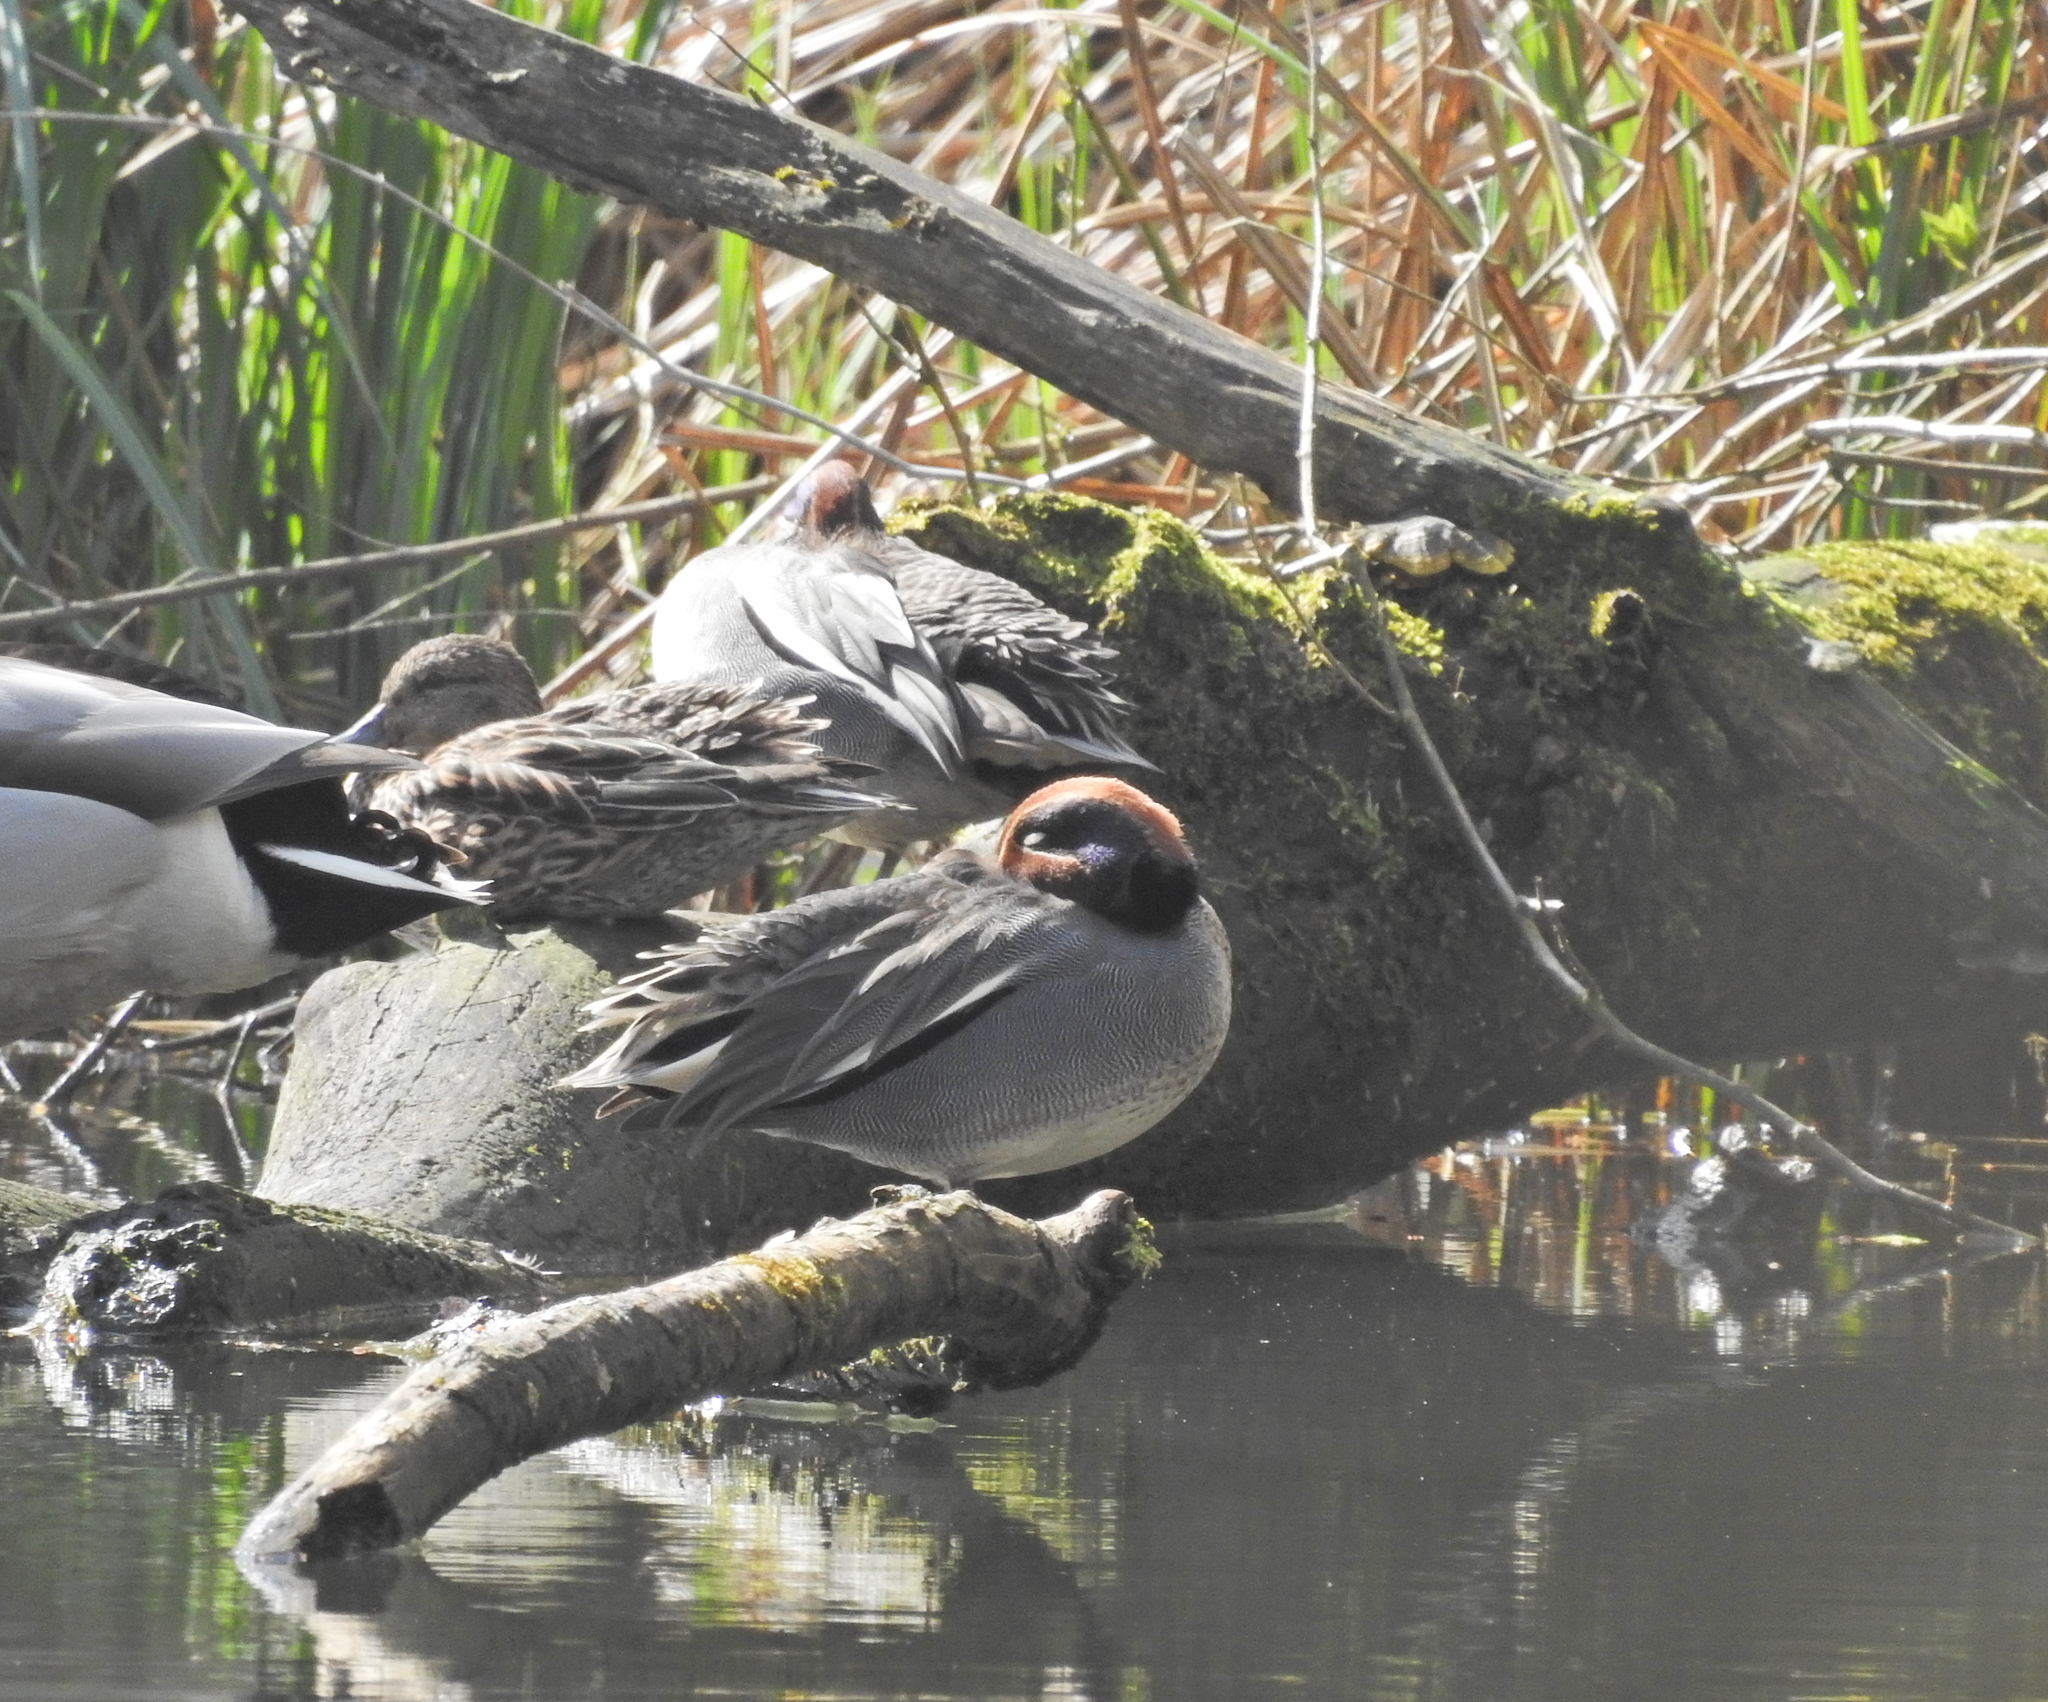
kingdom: Animalia
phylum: Chordata
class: Aves
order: Anseriformes
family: Anatidae
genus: Anas
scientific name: Anas crecca
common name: Eurasian teal
